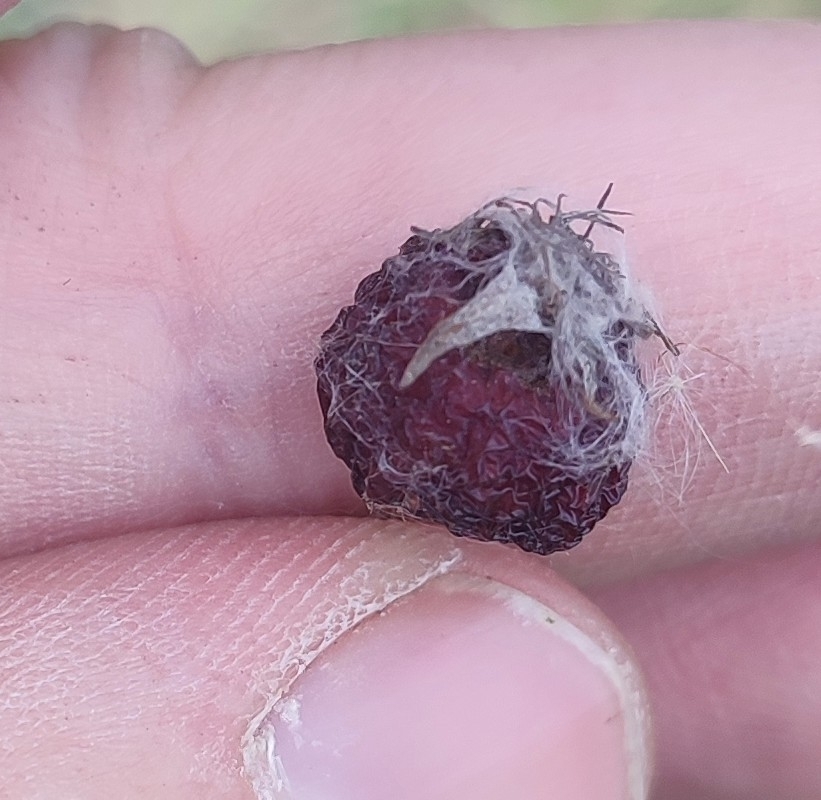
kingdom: Plantae
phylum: Tracheophyta
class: Magnoliopsida
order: Rosales
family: Rosaceae
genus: Malus
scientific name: Malus baccata
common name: Siberian crab
